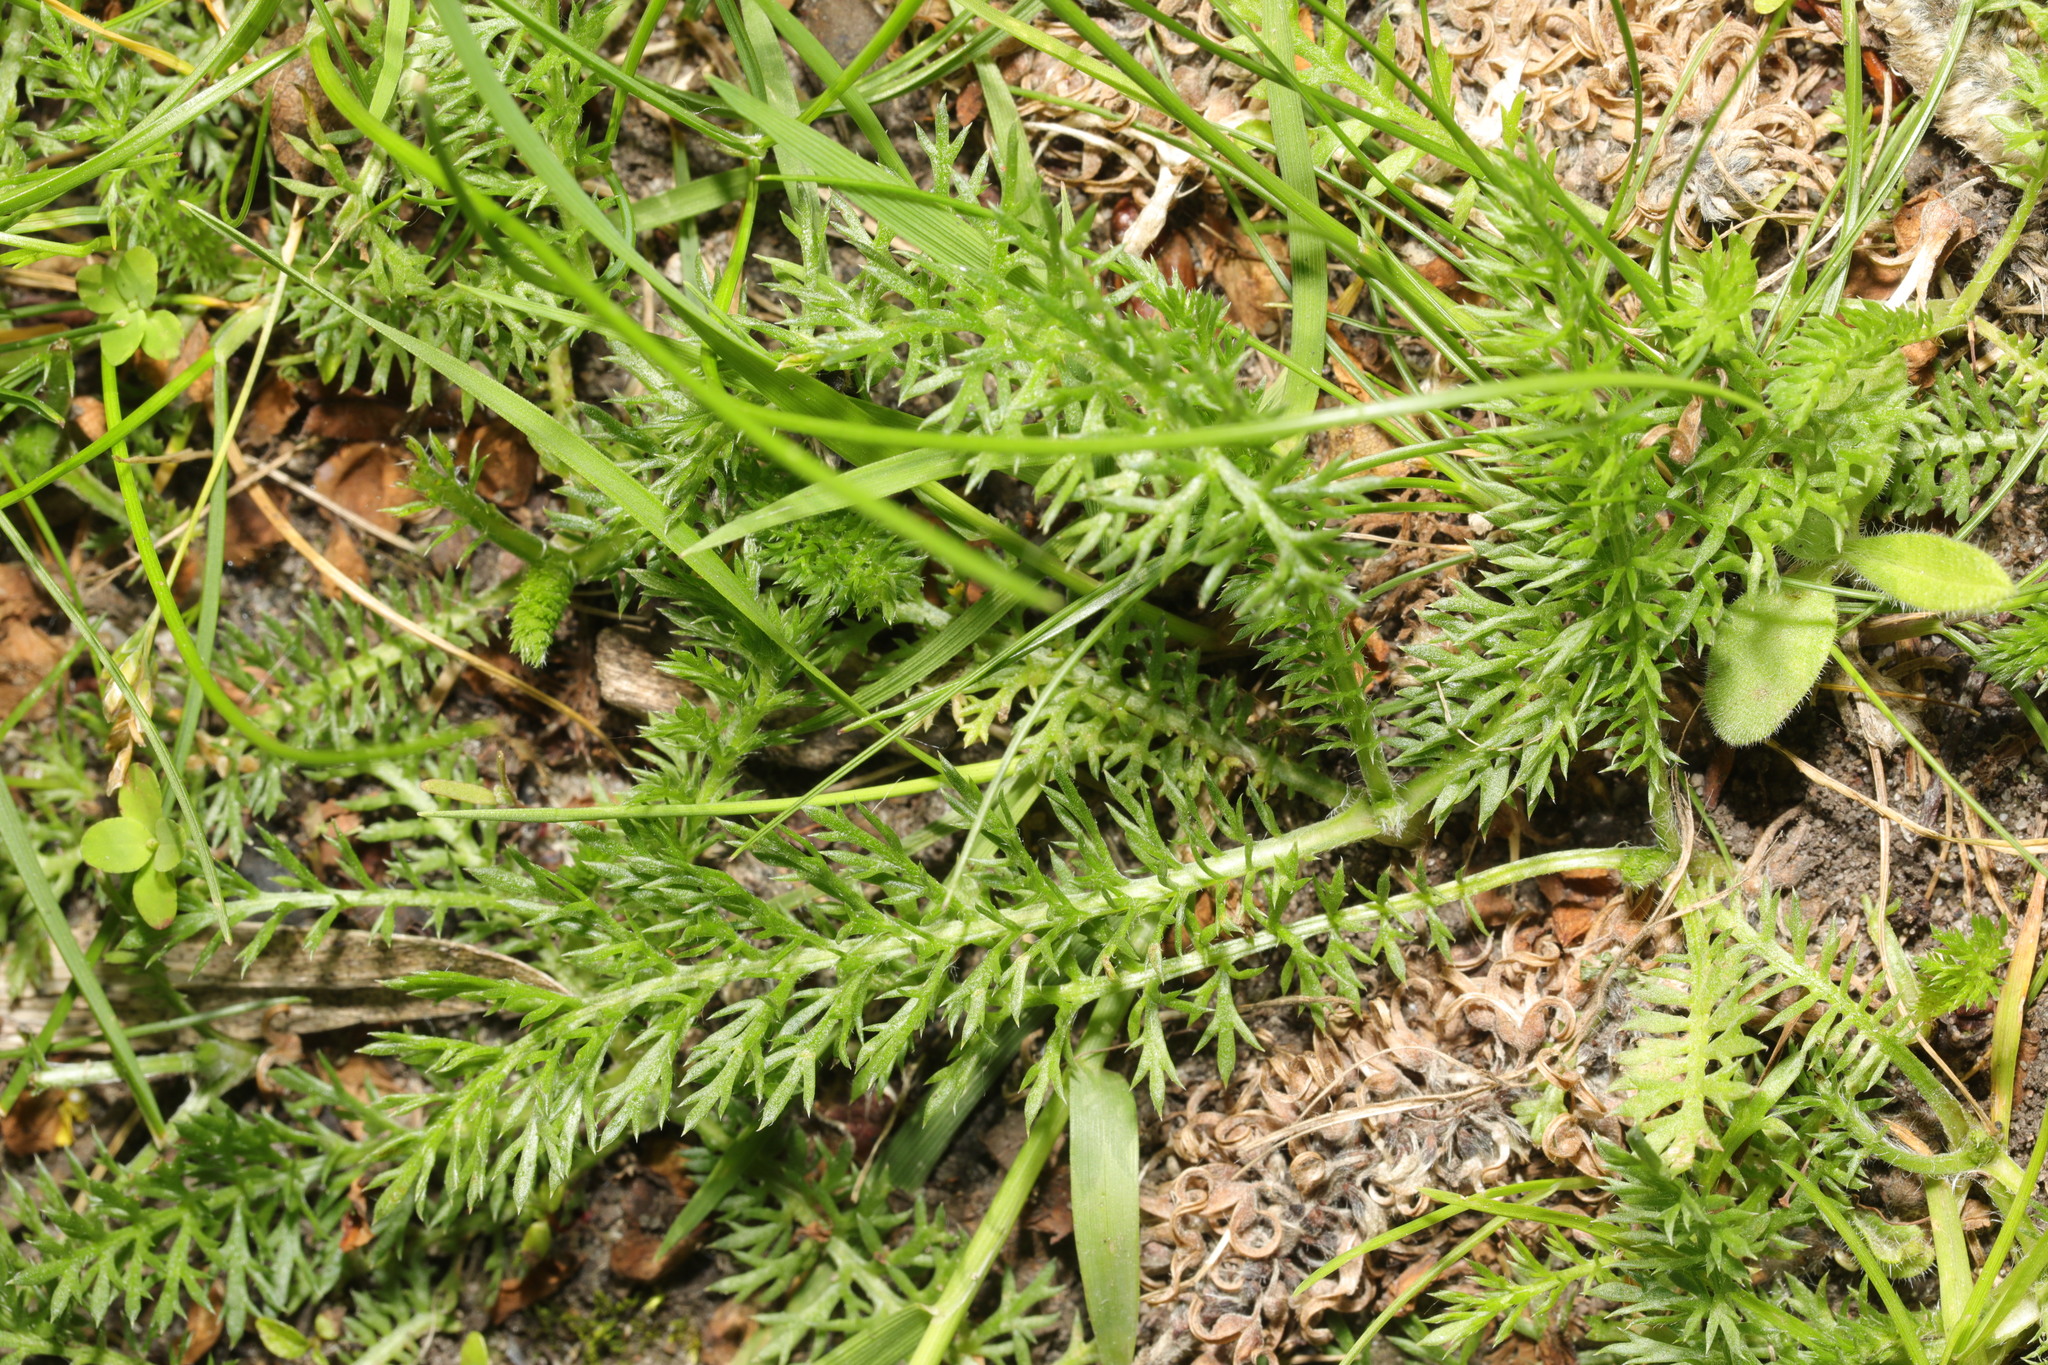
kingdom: Plantae
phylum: Tracheophyta
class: Magnoliopsida
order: Asterales
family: Asteraceae
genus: Achillea
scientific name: Achillea millefolium
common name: Yarrow
